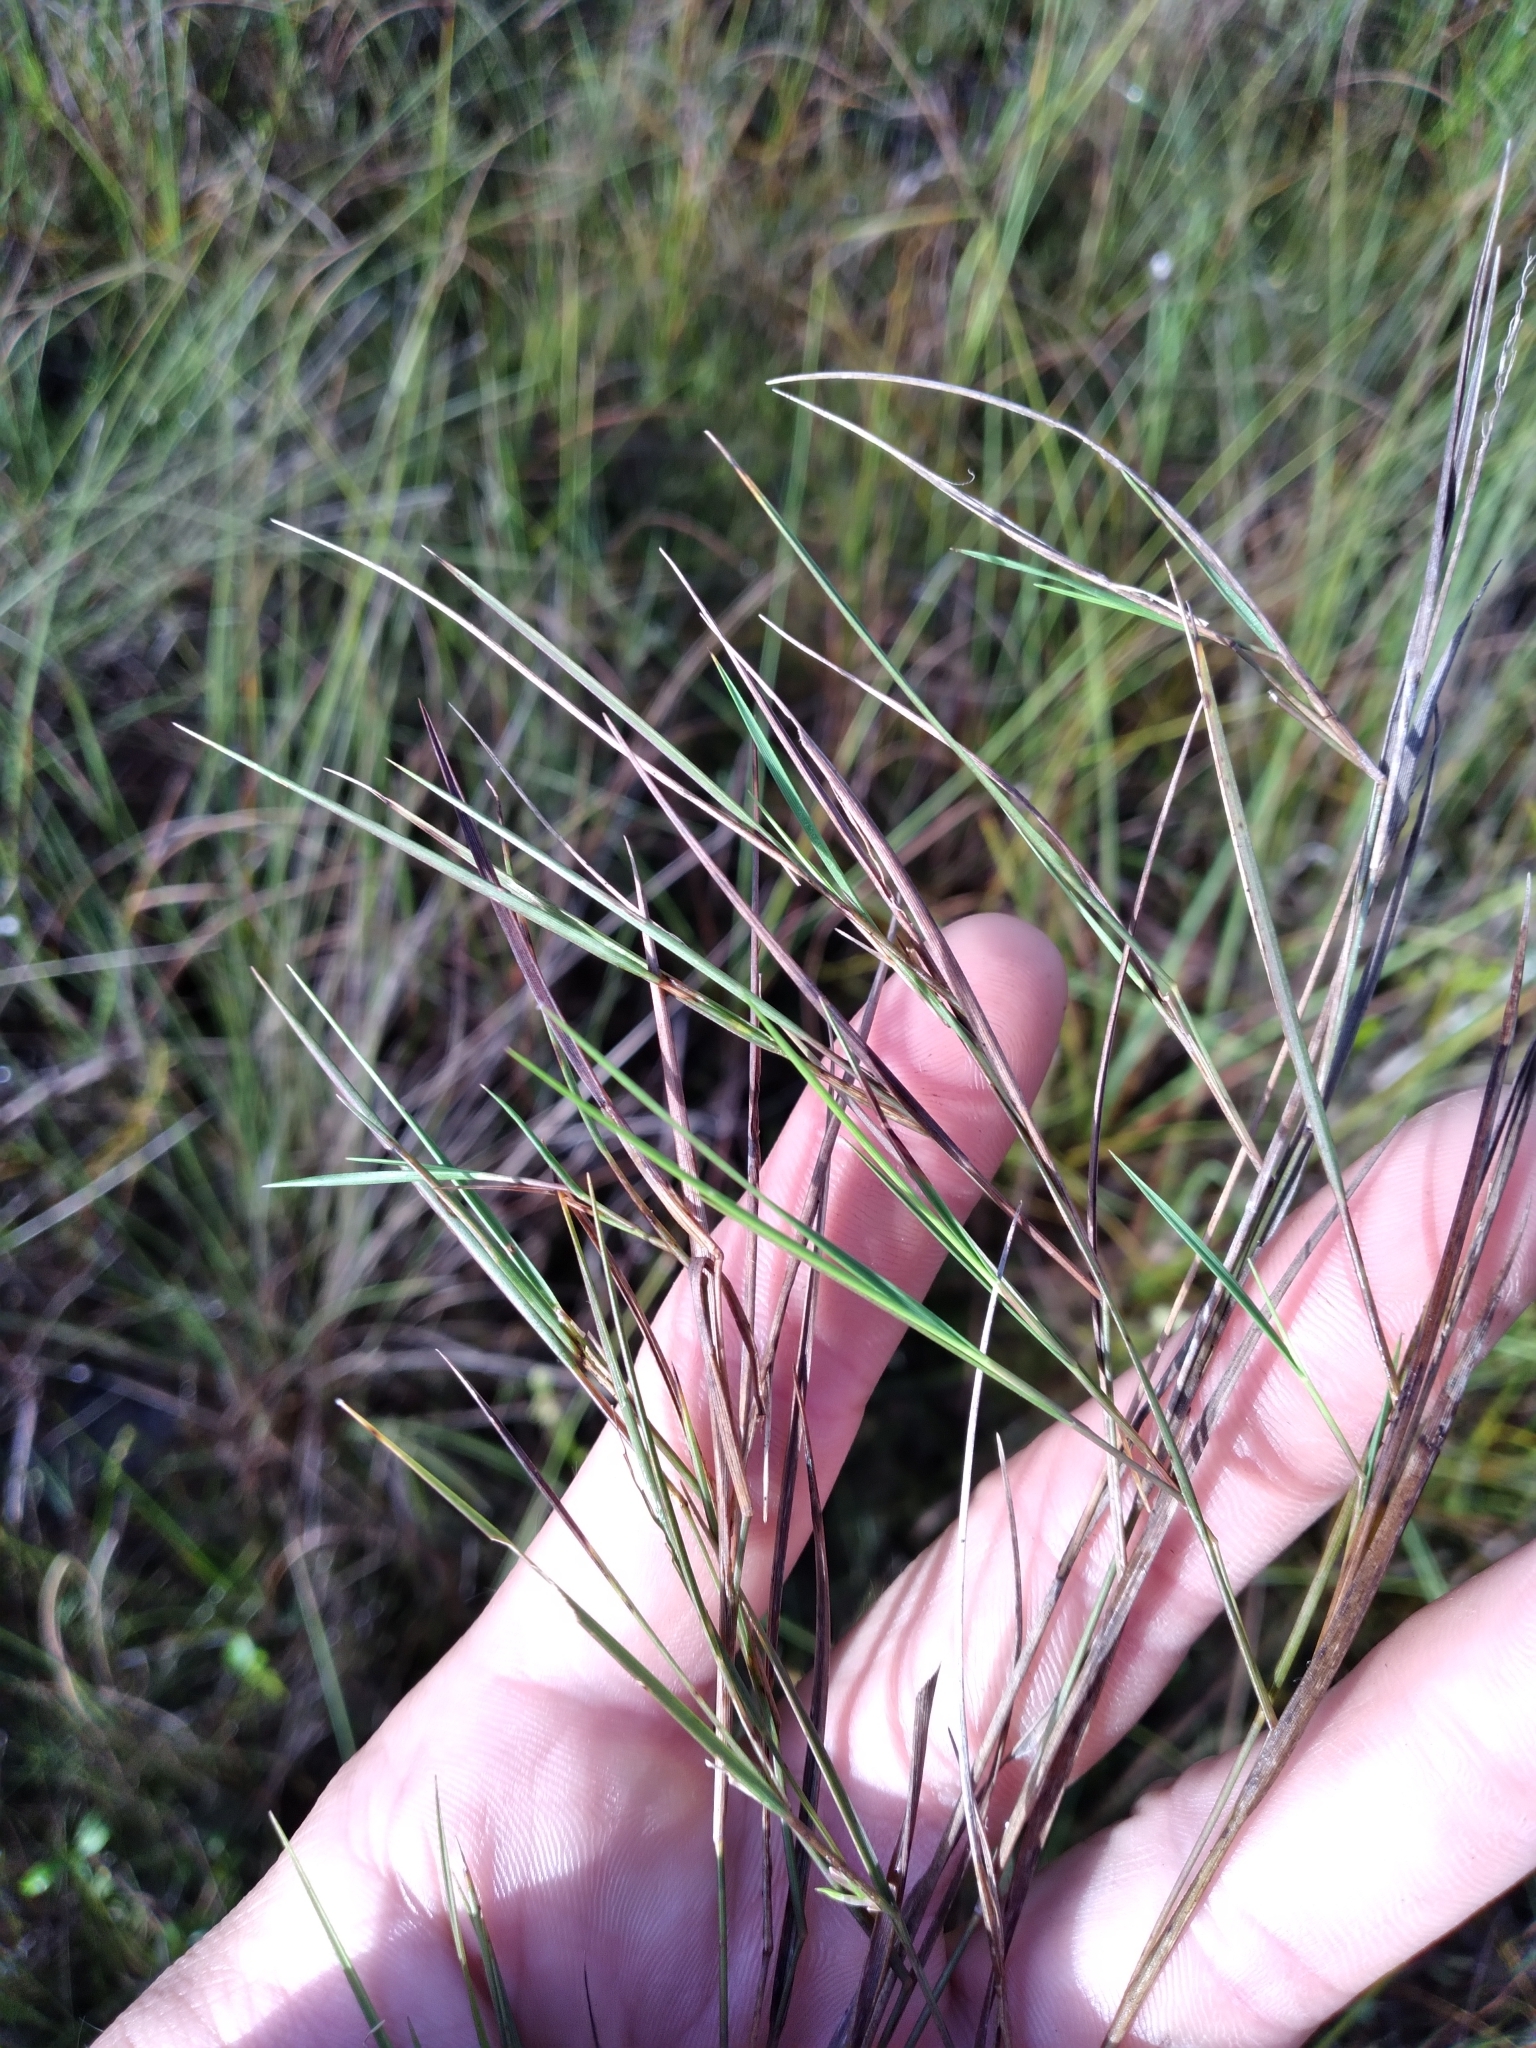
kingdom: Plantae
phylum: Tracheophyta
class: Liliopsida
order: Poales
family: Poaceae
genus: Dichanthelium
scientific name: Dichanthelium neuranthum
